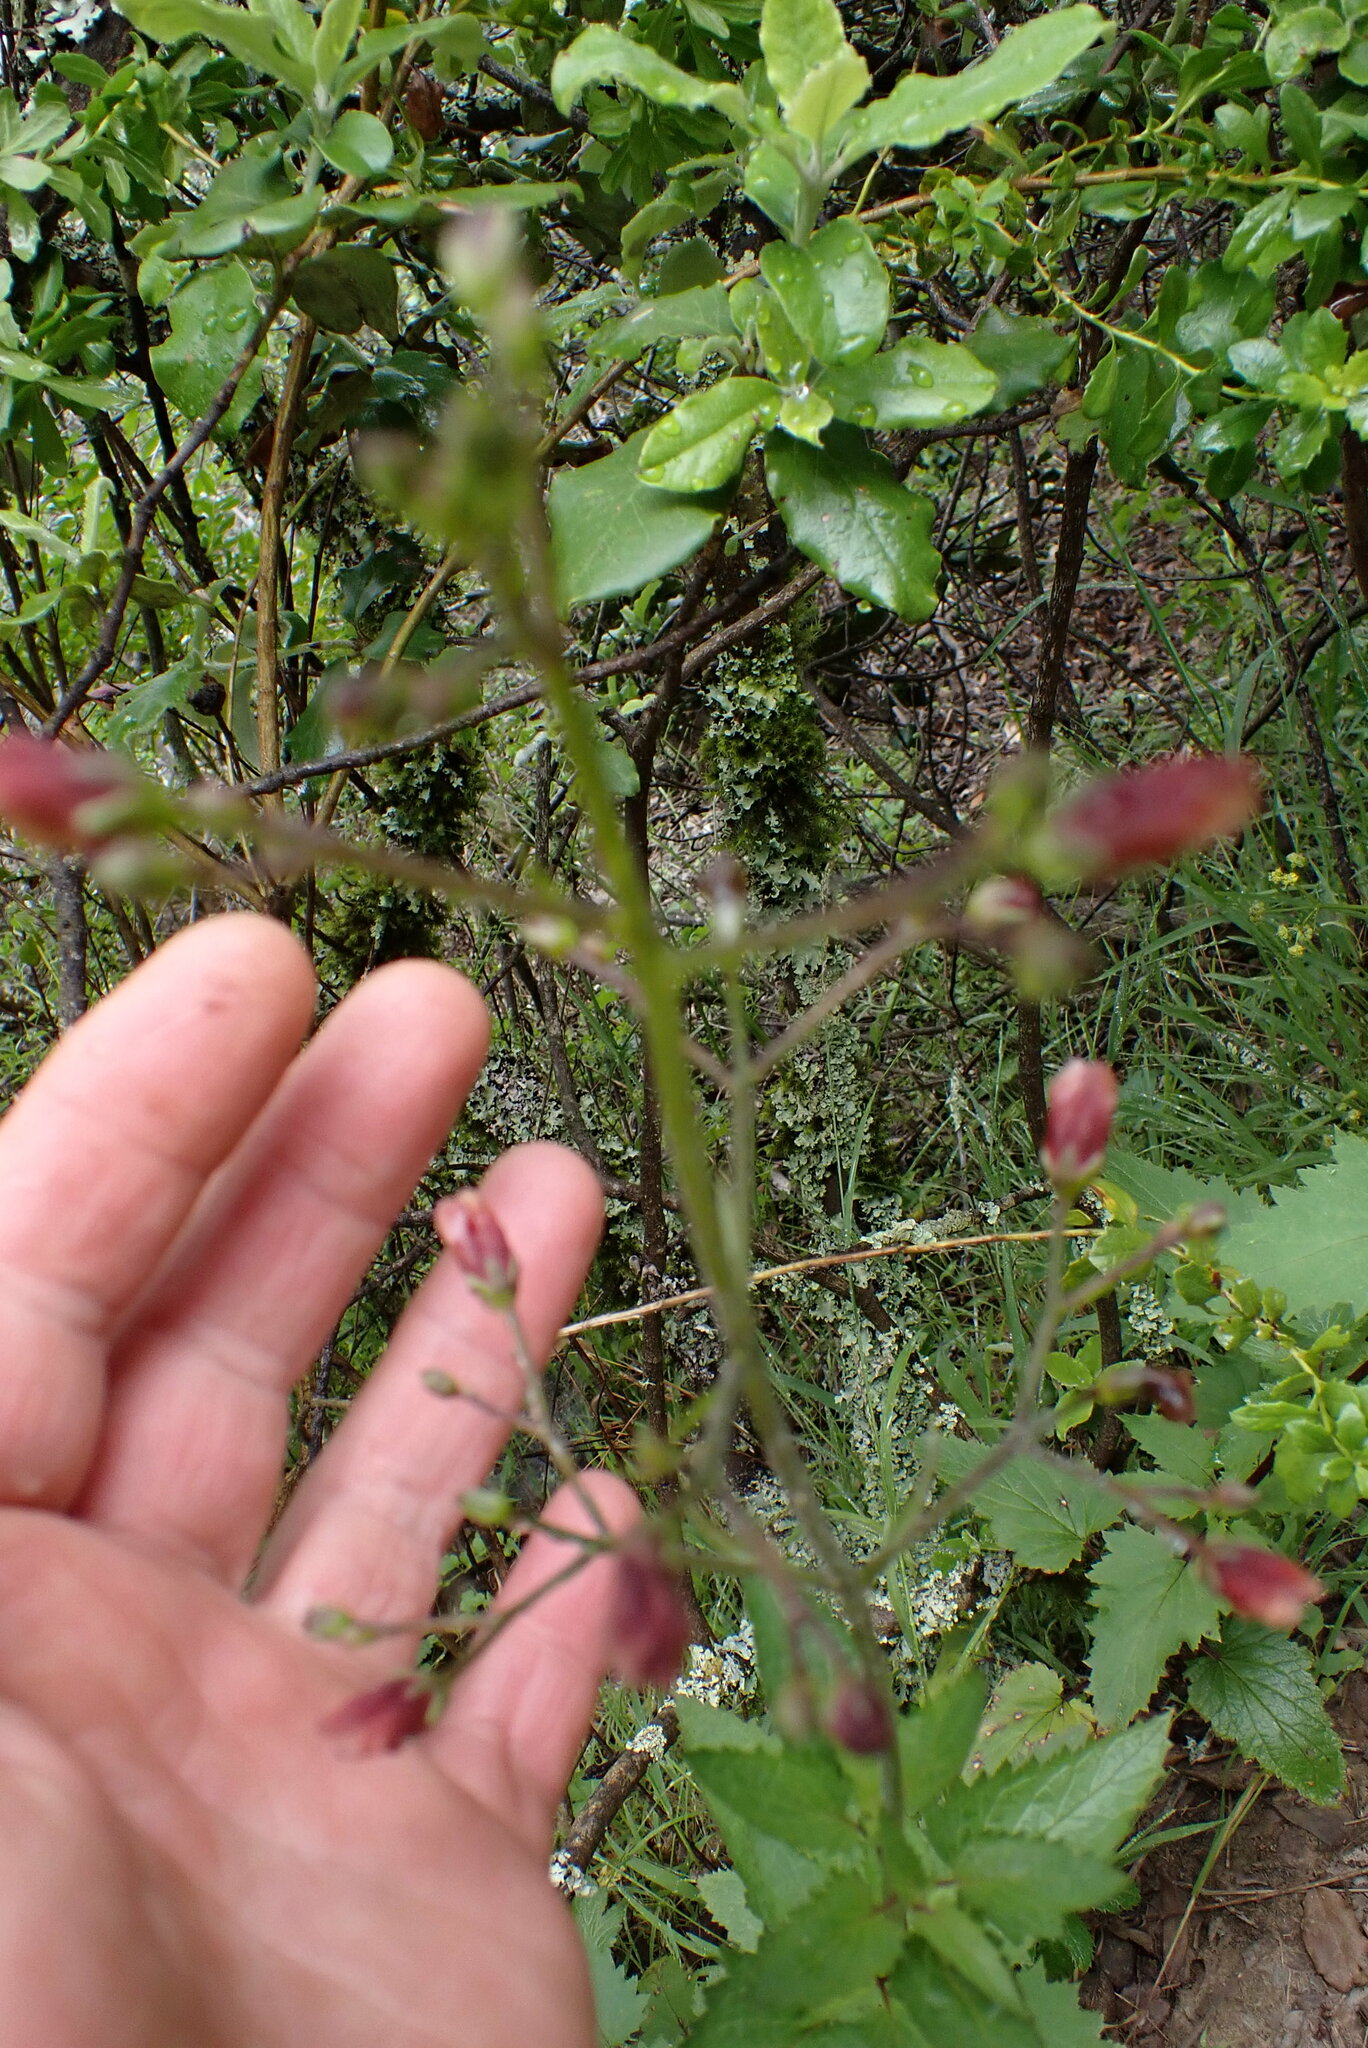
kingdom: Plantae
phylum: Tracheophyta
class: Magnoliopsida
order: Lamiales
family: Scrophulariaceae
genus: Scrophularia
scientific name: Scrophularia californica
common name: California figwort
